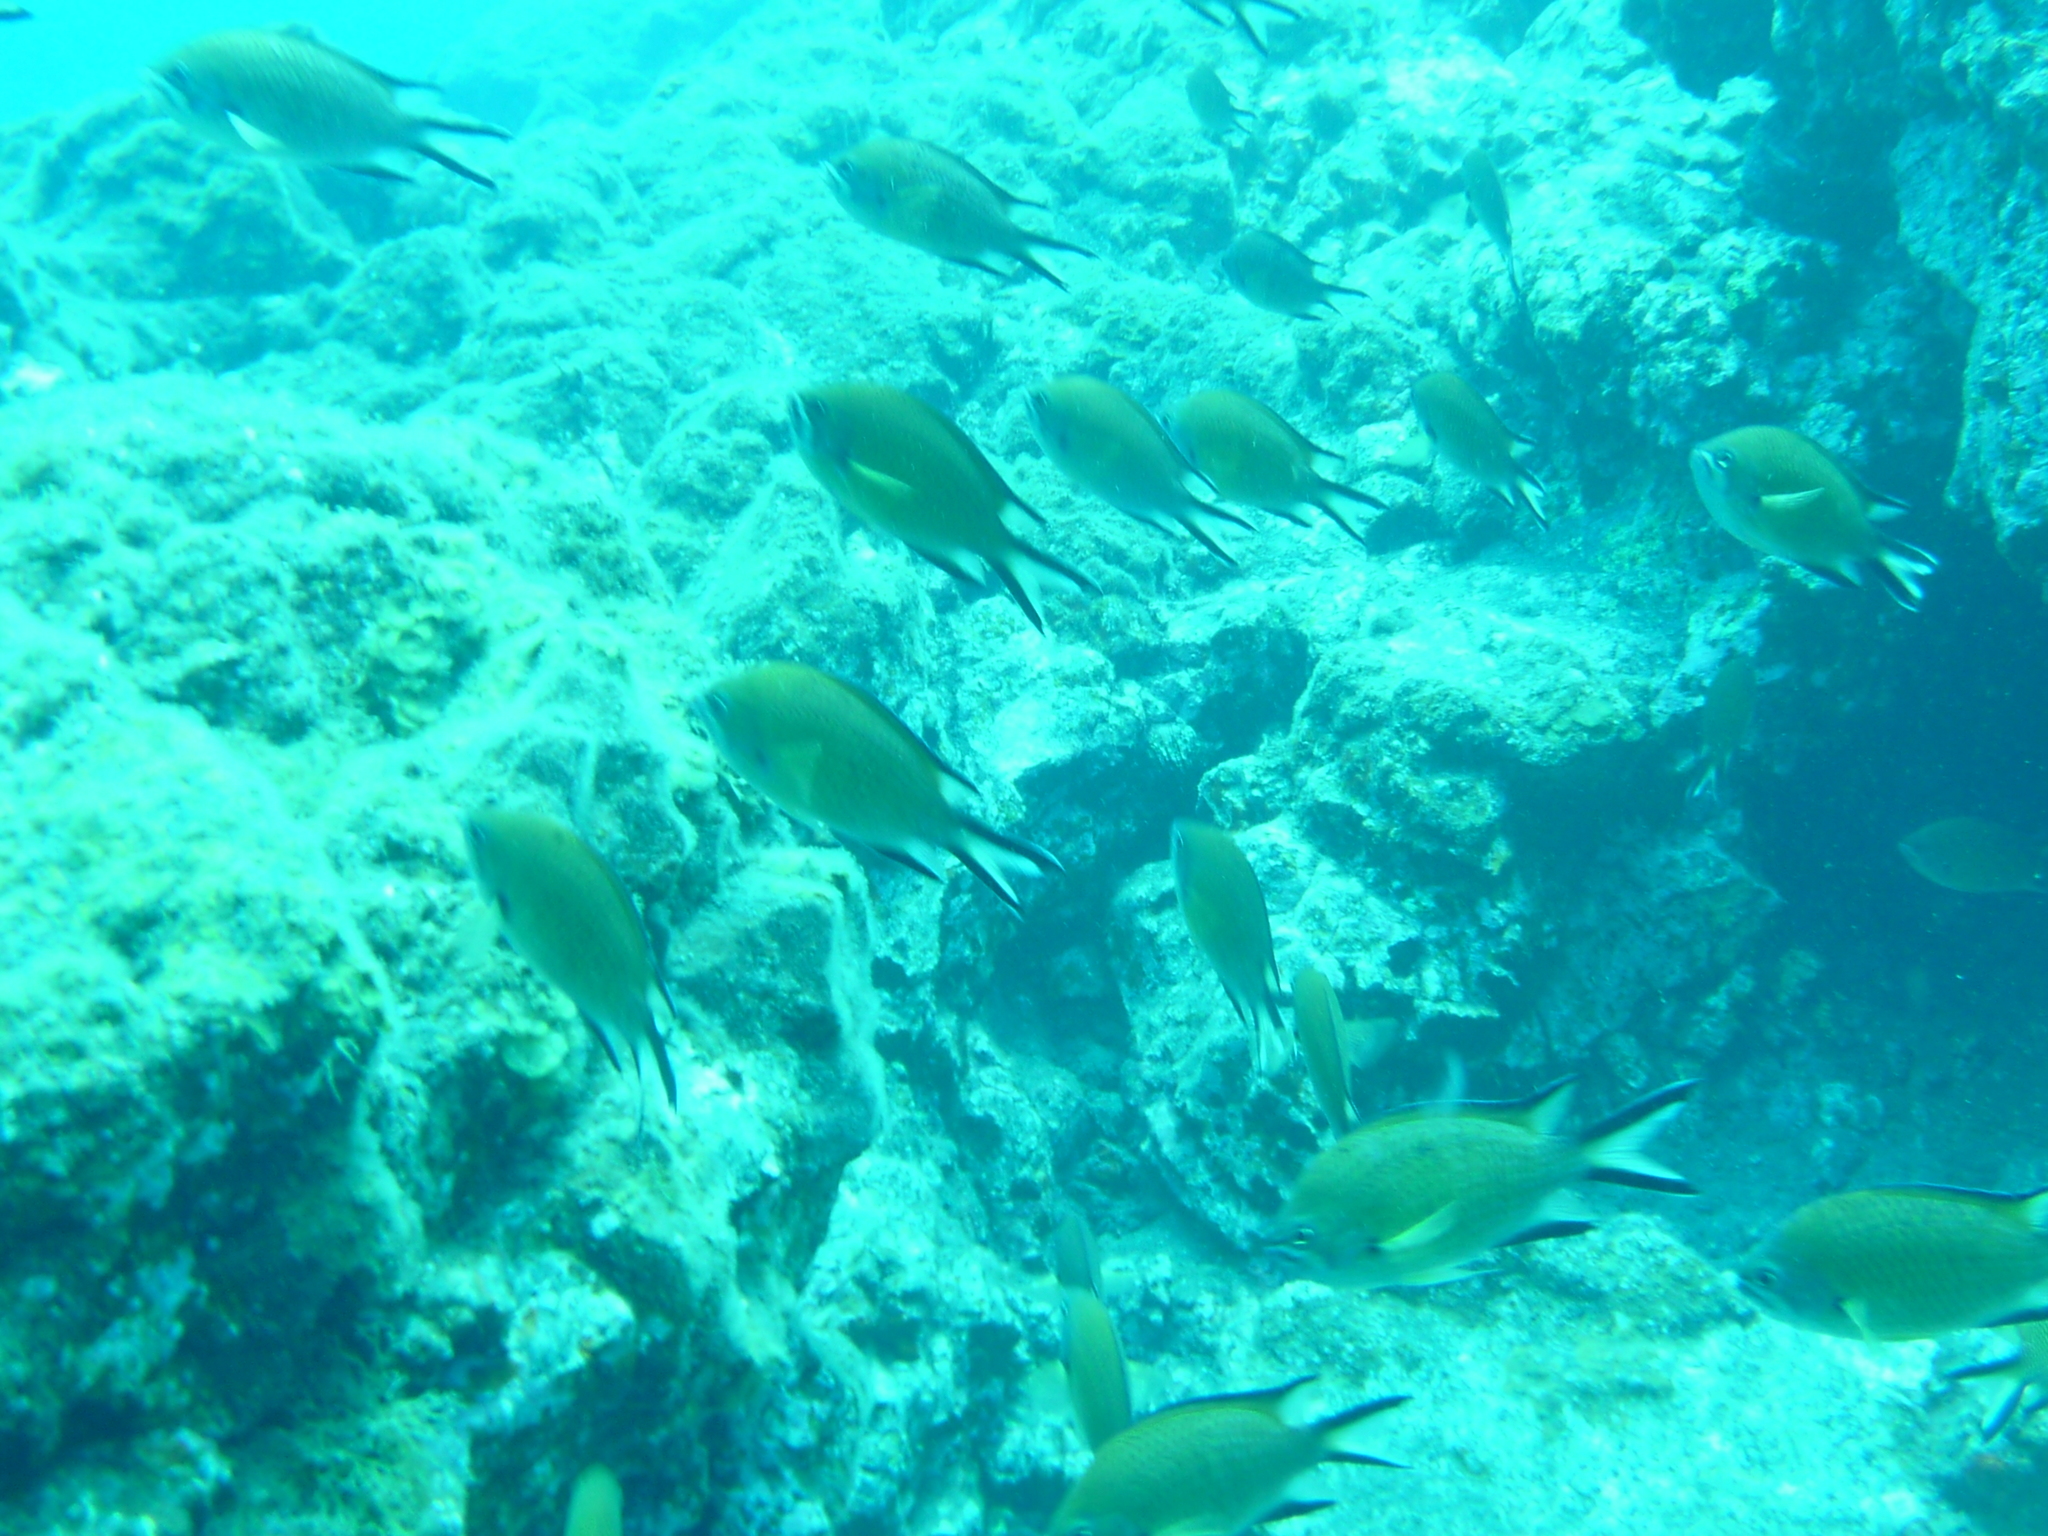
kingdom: Animalia
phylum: Chordata
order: Perciformes
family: Pomacentridae
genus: Chromis
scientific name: Chromis limbata
